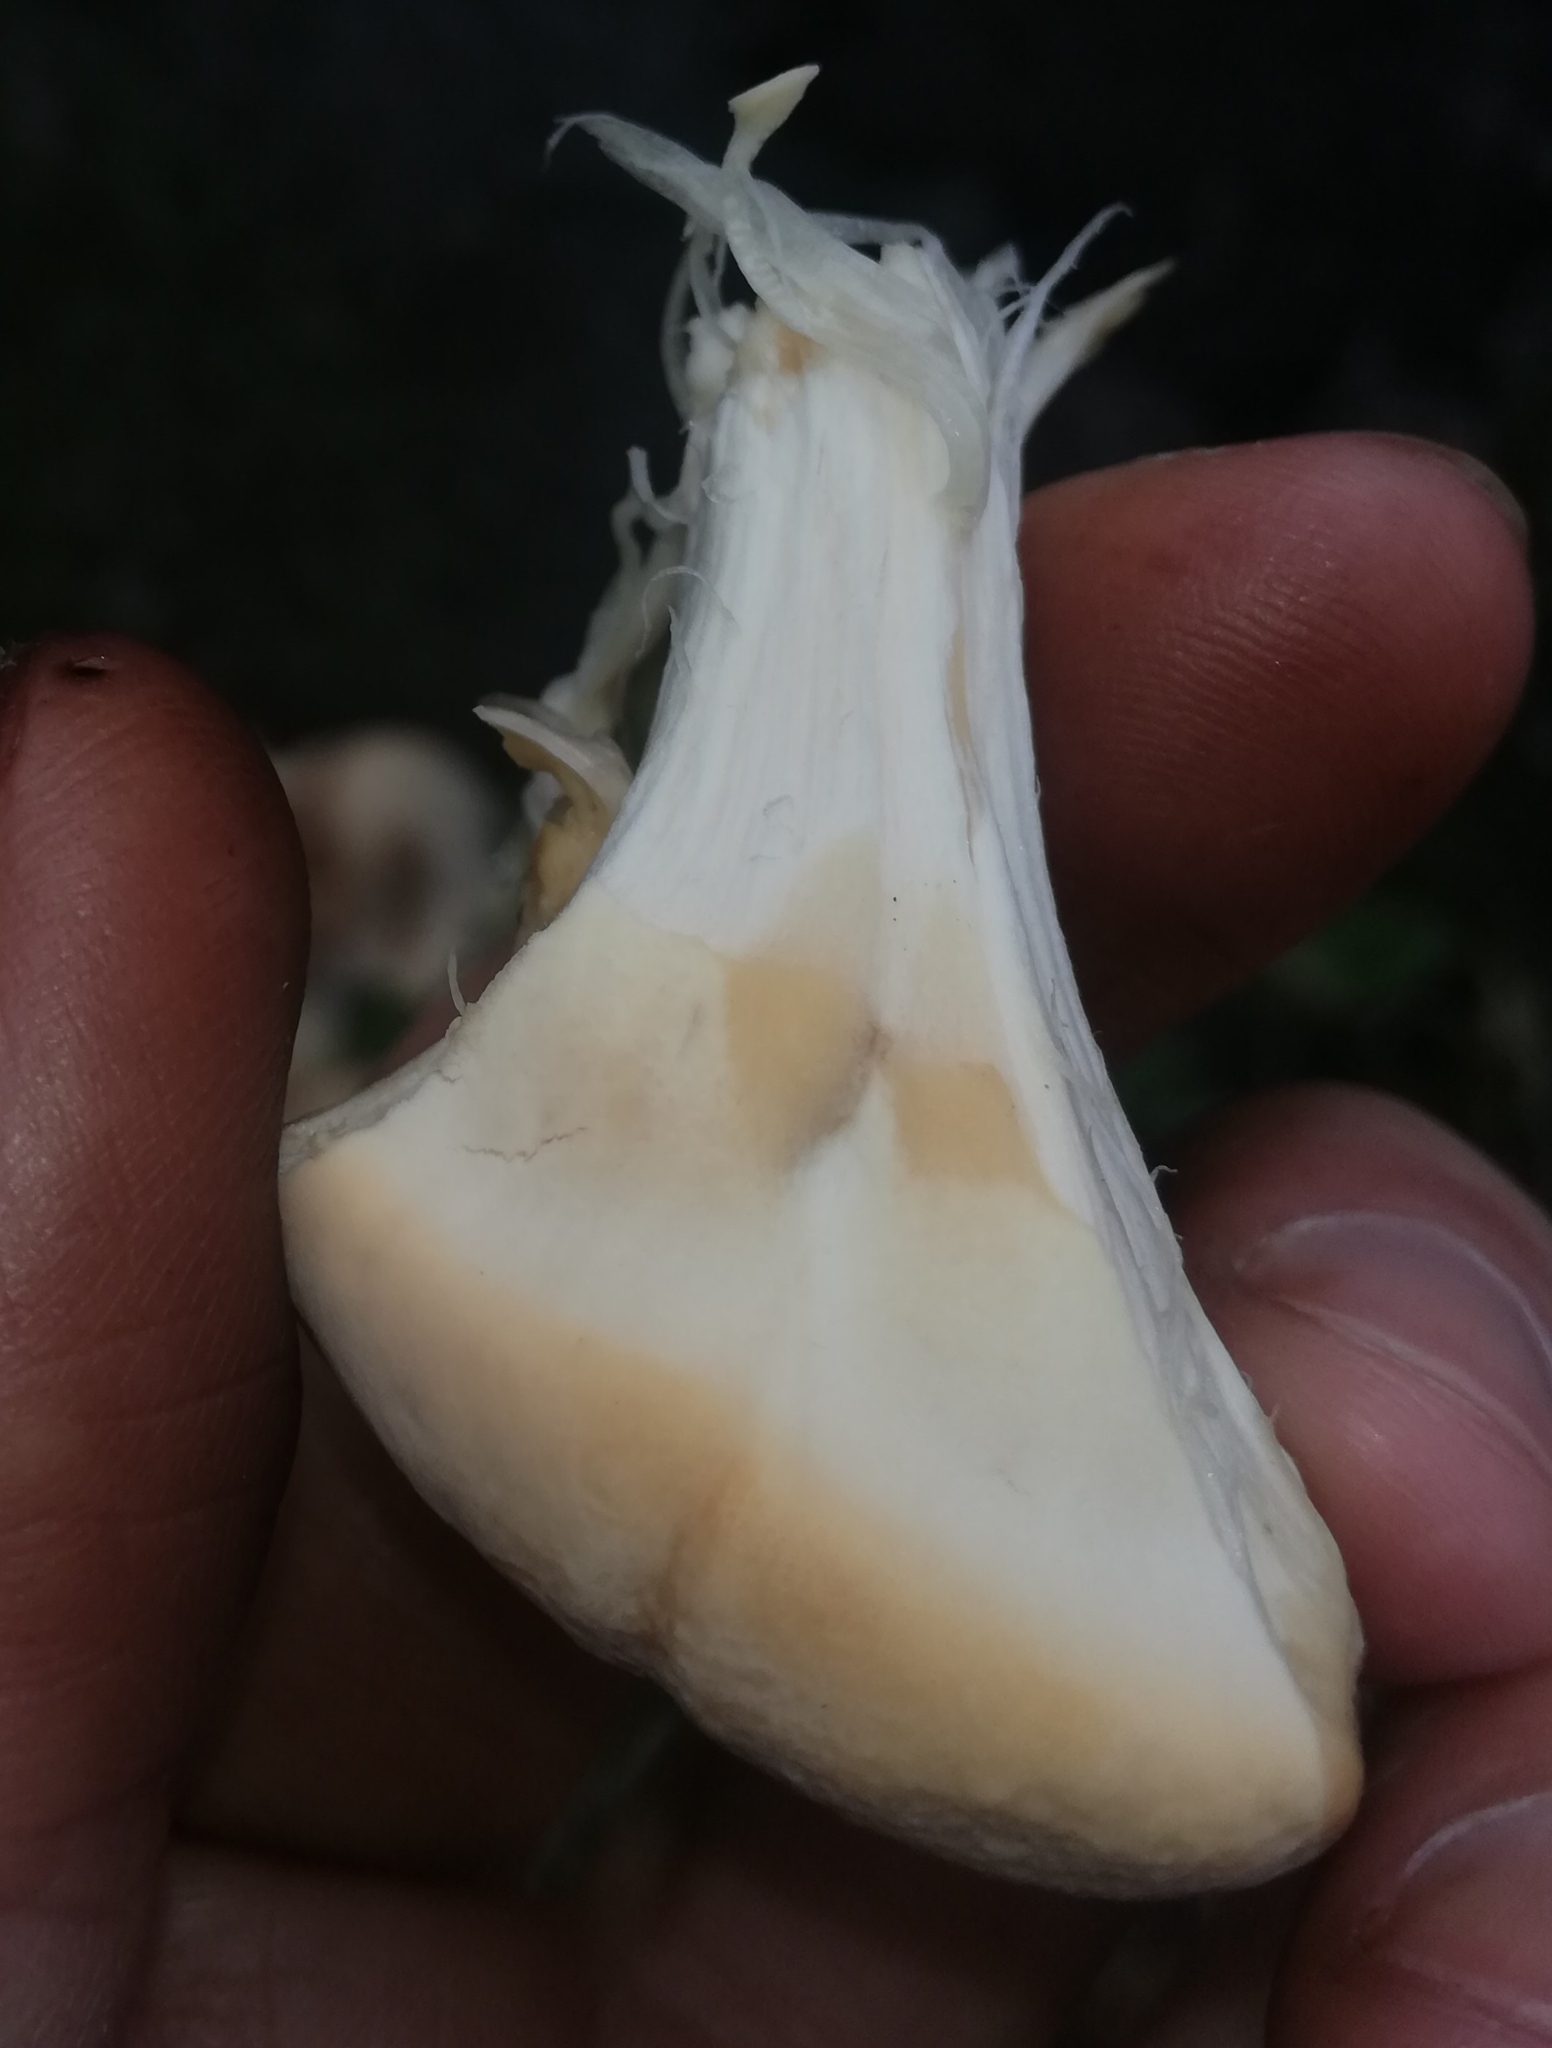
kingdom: Fungi
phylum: Basidiomycota
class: Agaricomycetes
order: Polyporales
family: Meripilaceae
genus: Meripilus
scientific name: Meripilus giganteus
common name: Giant polypore
